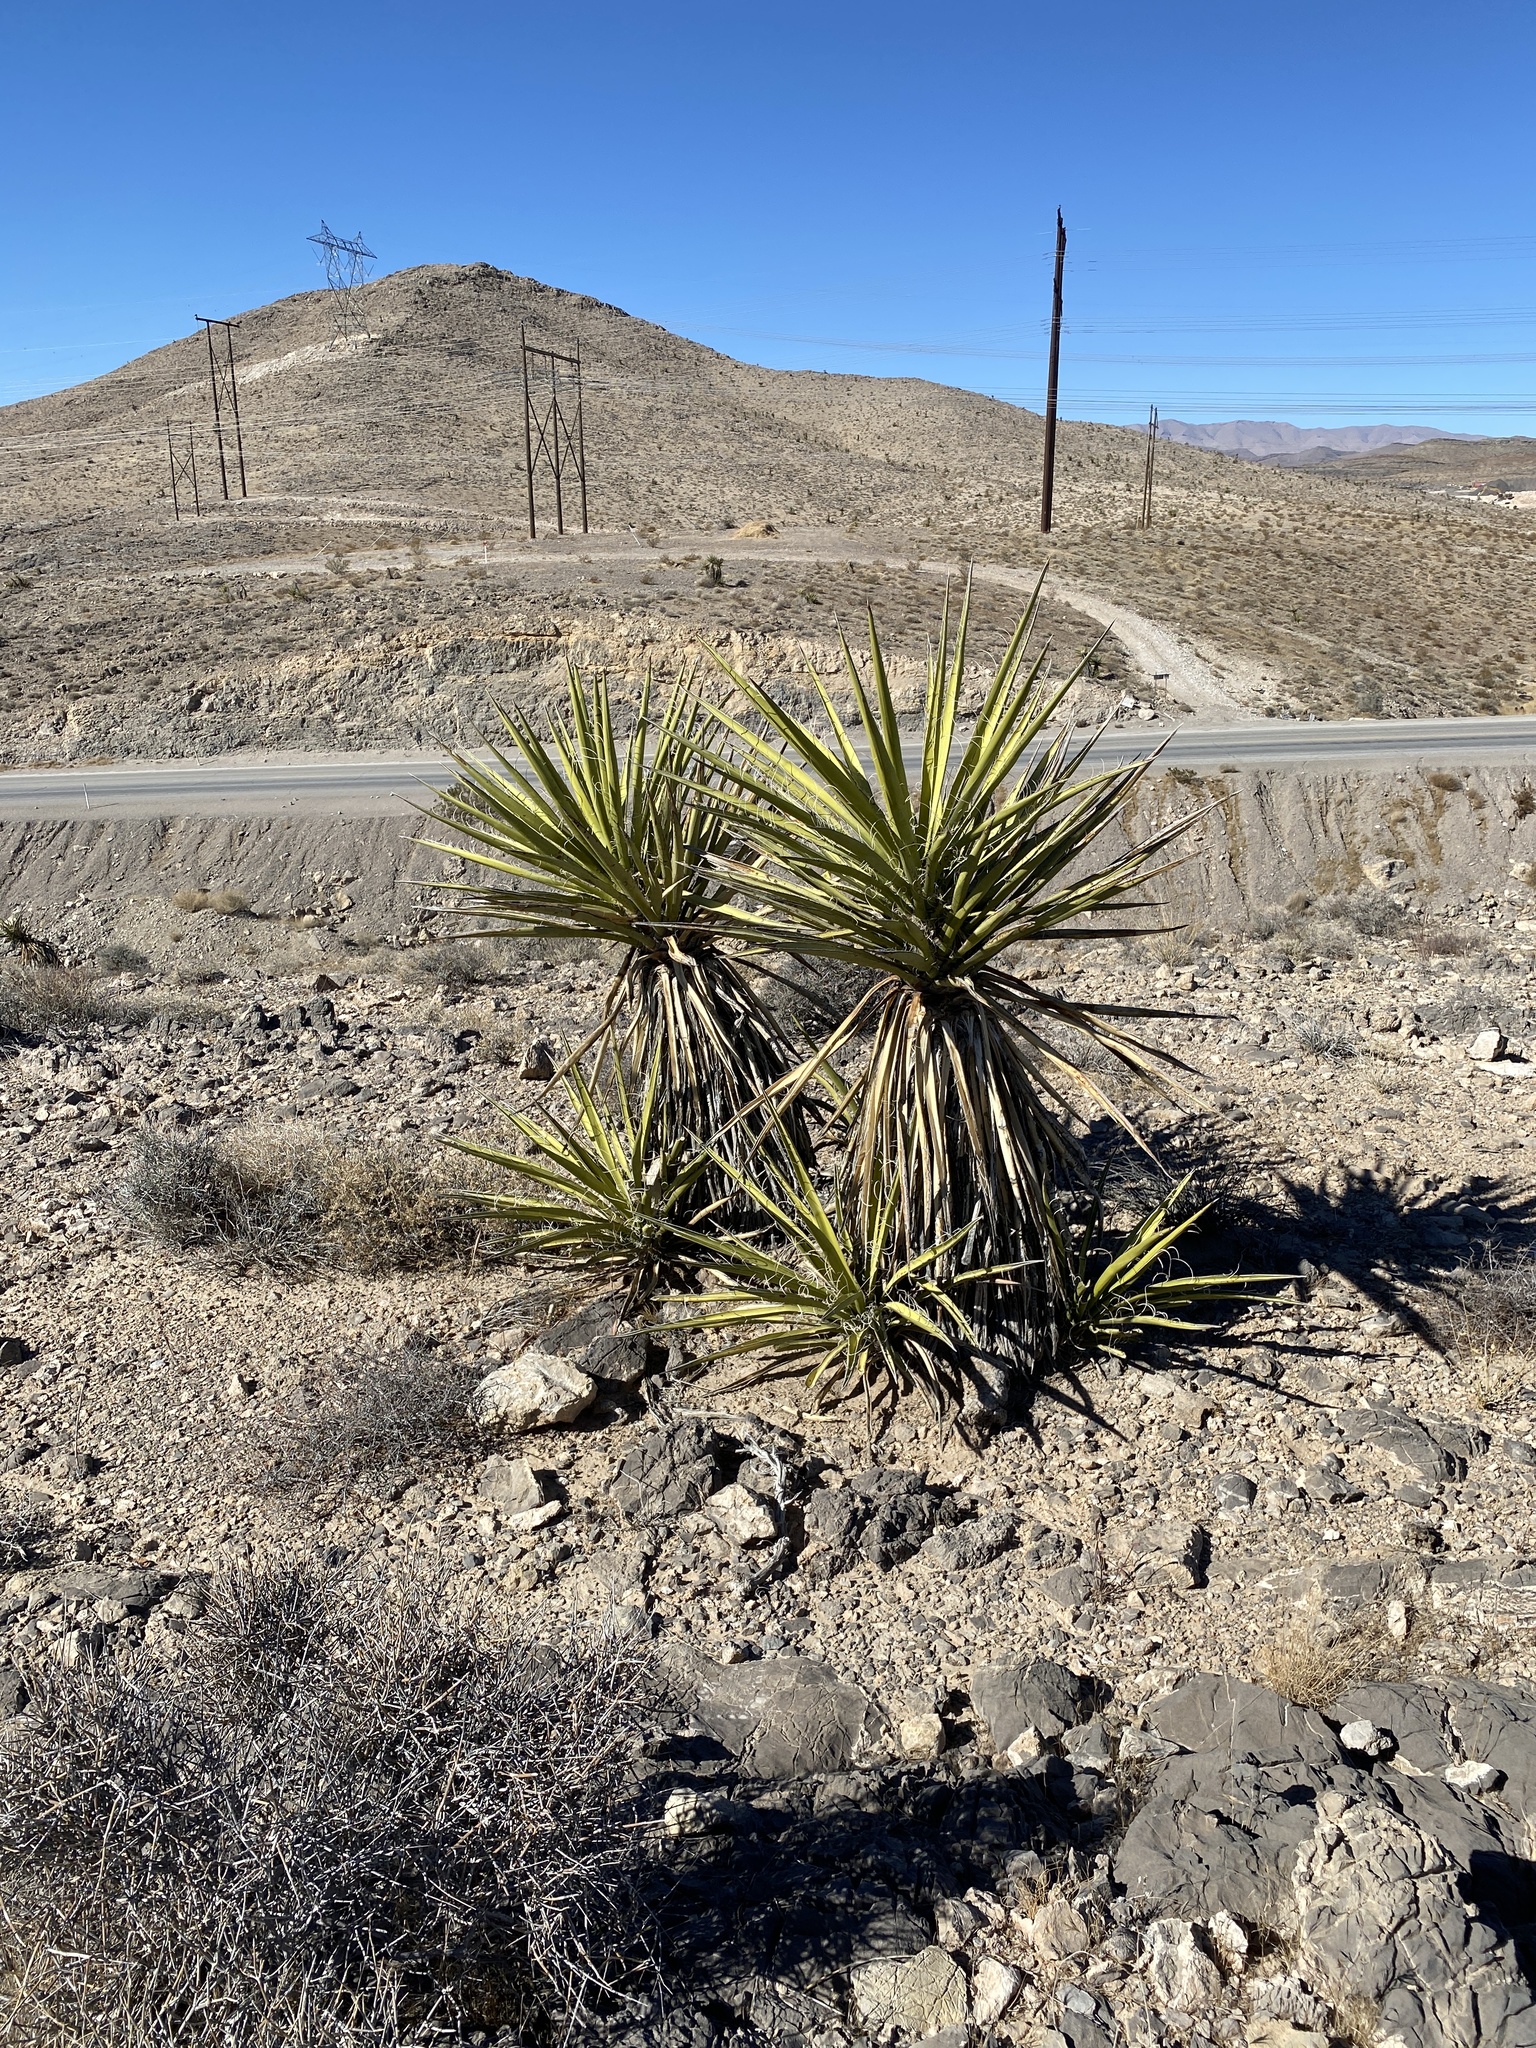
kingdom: Plantae
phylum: Tracheophyta
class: Liliopsida
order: Asparagales
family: Asparagaceae
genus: Yucca
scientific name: Yucca schidigera
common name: Mojave yucca
